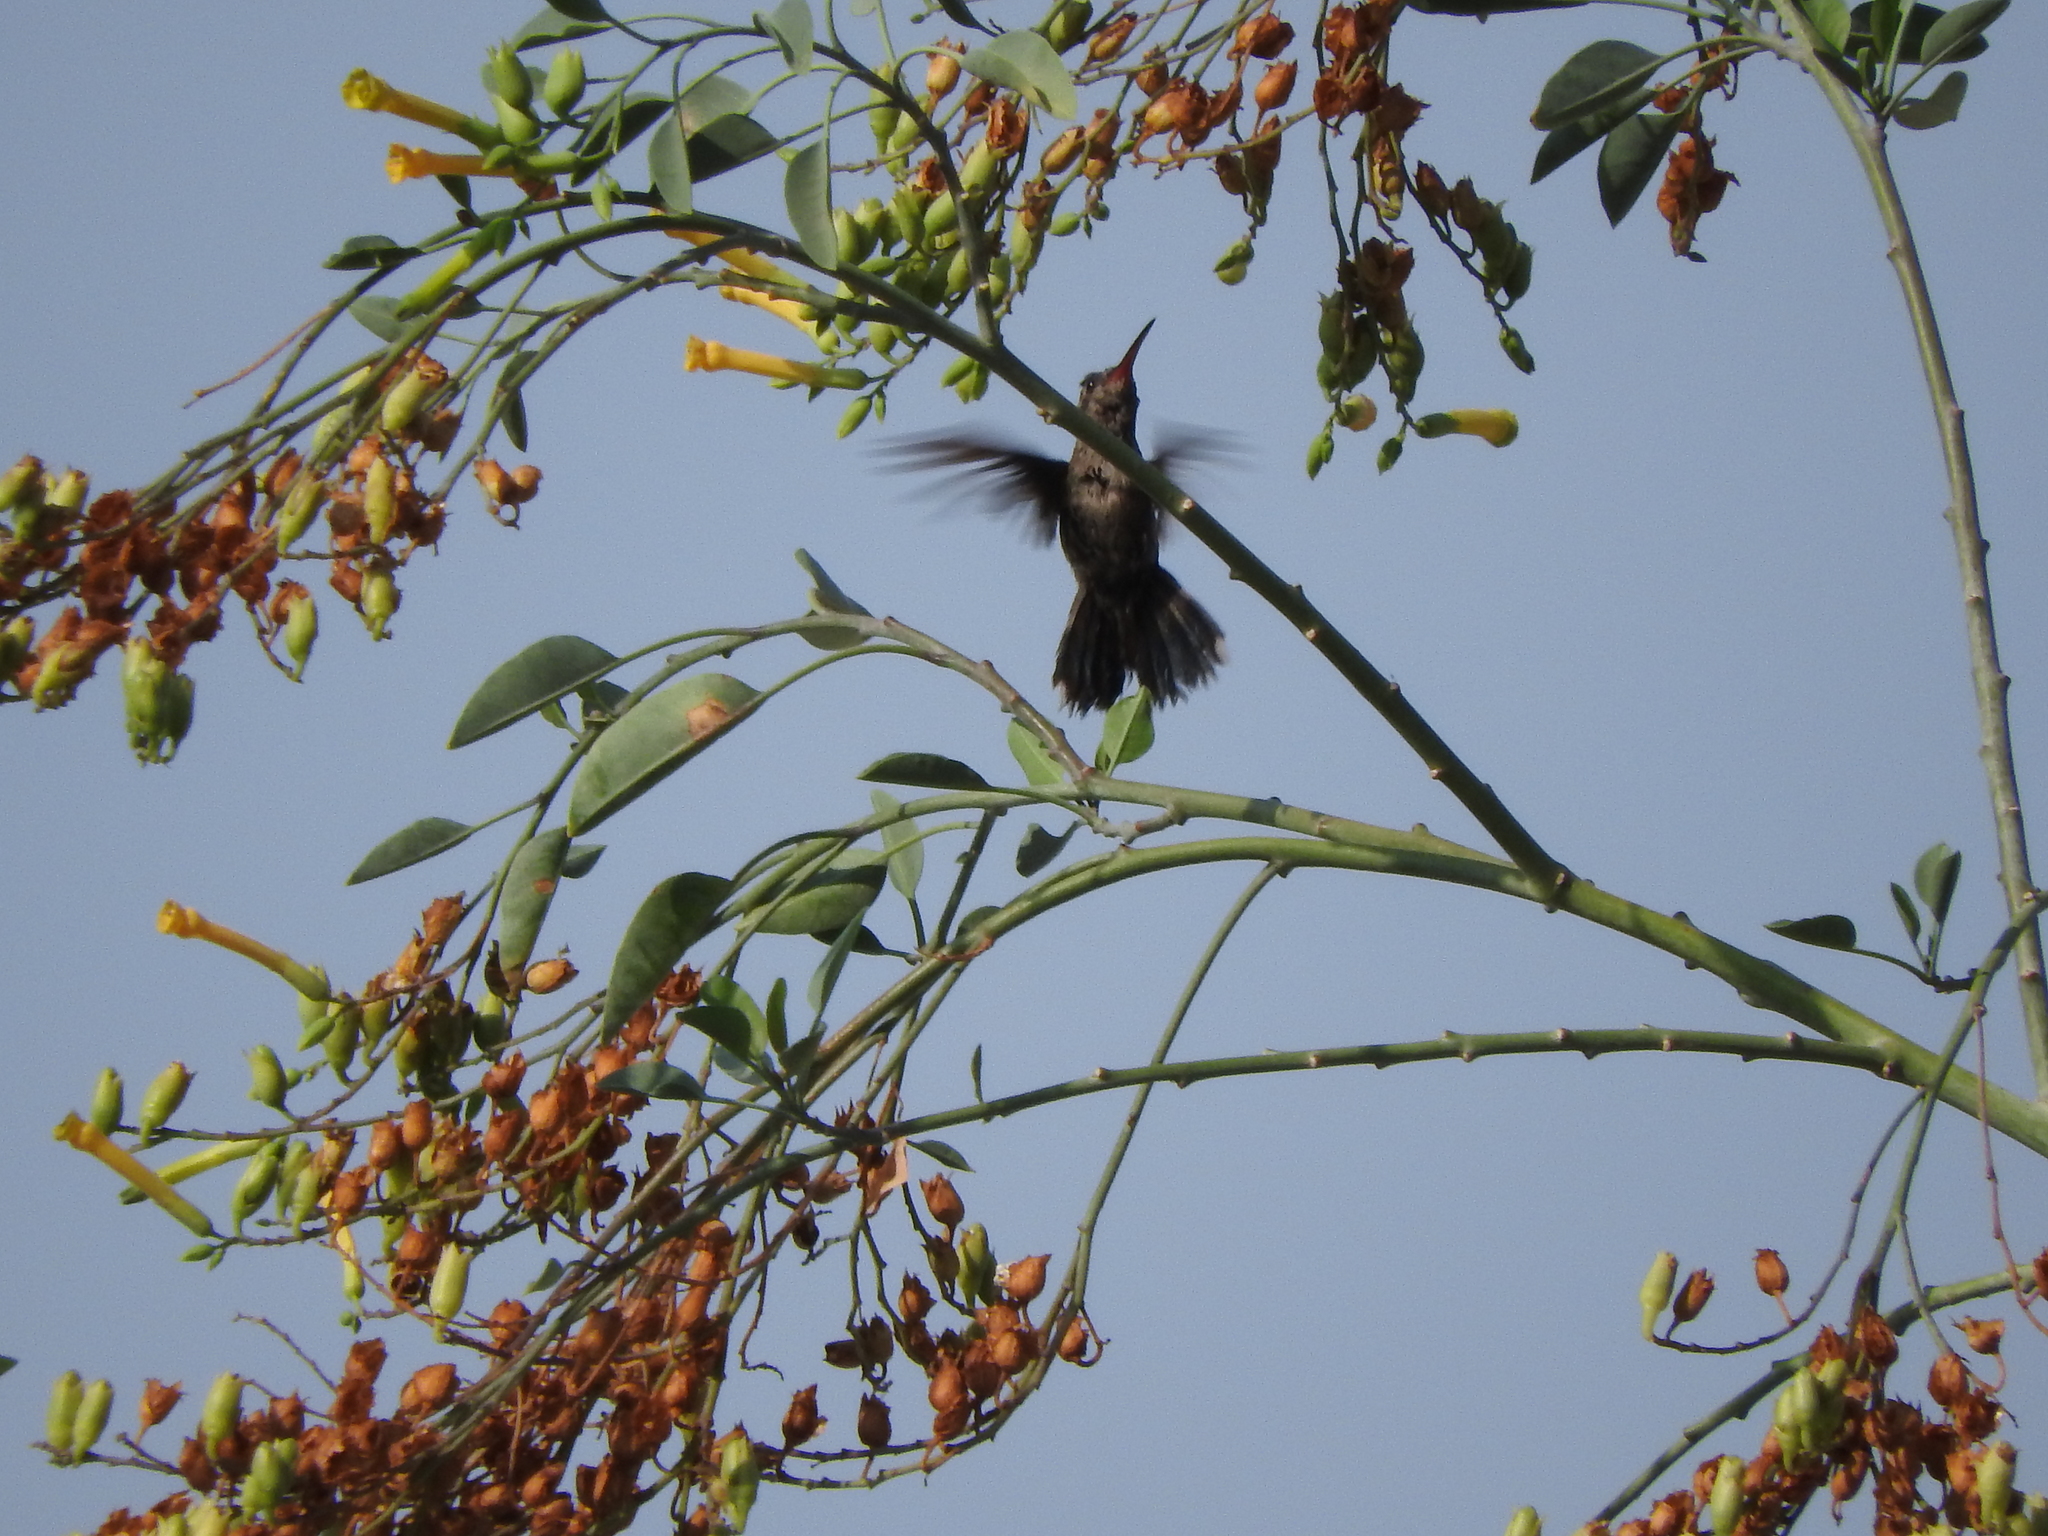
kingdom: Animalia
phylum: Chordata
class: Aves
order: Apodiformes
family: Trochilidae
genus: Cynanthus
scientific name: Cynanthus latirostris
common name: Broad-billed hummingbird
